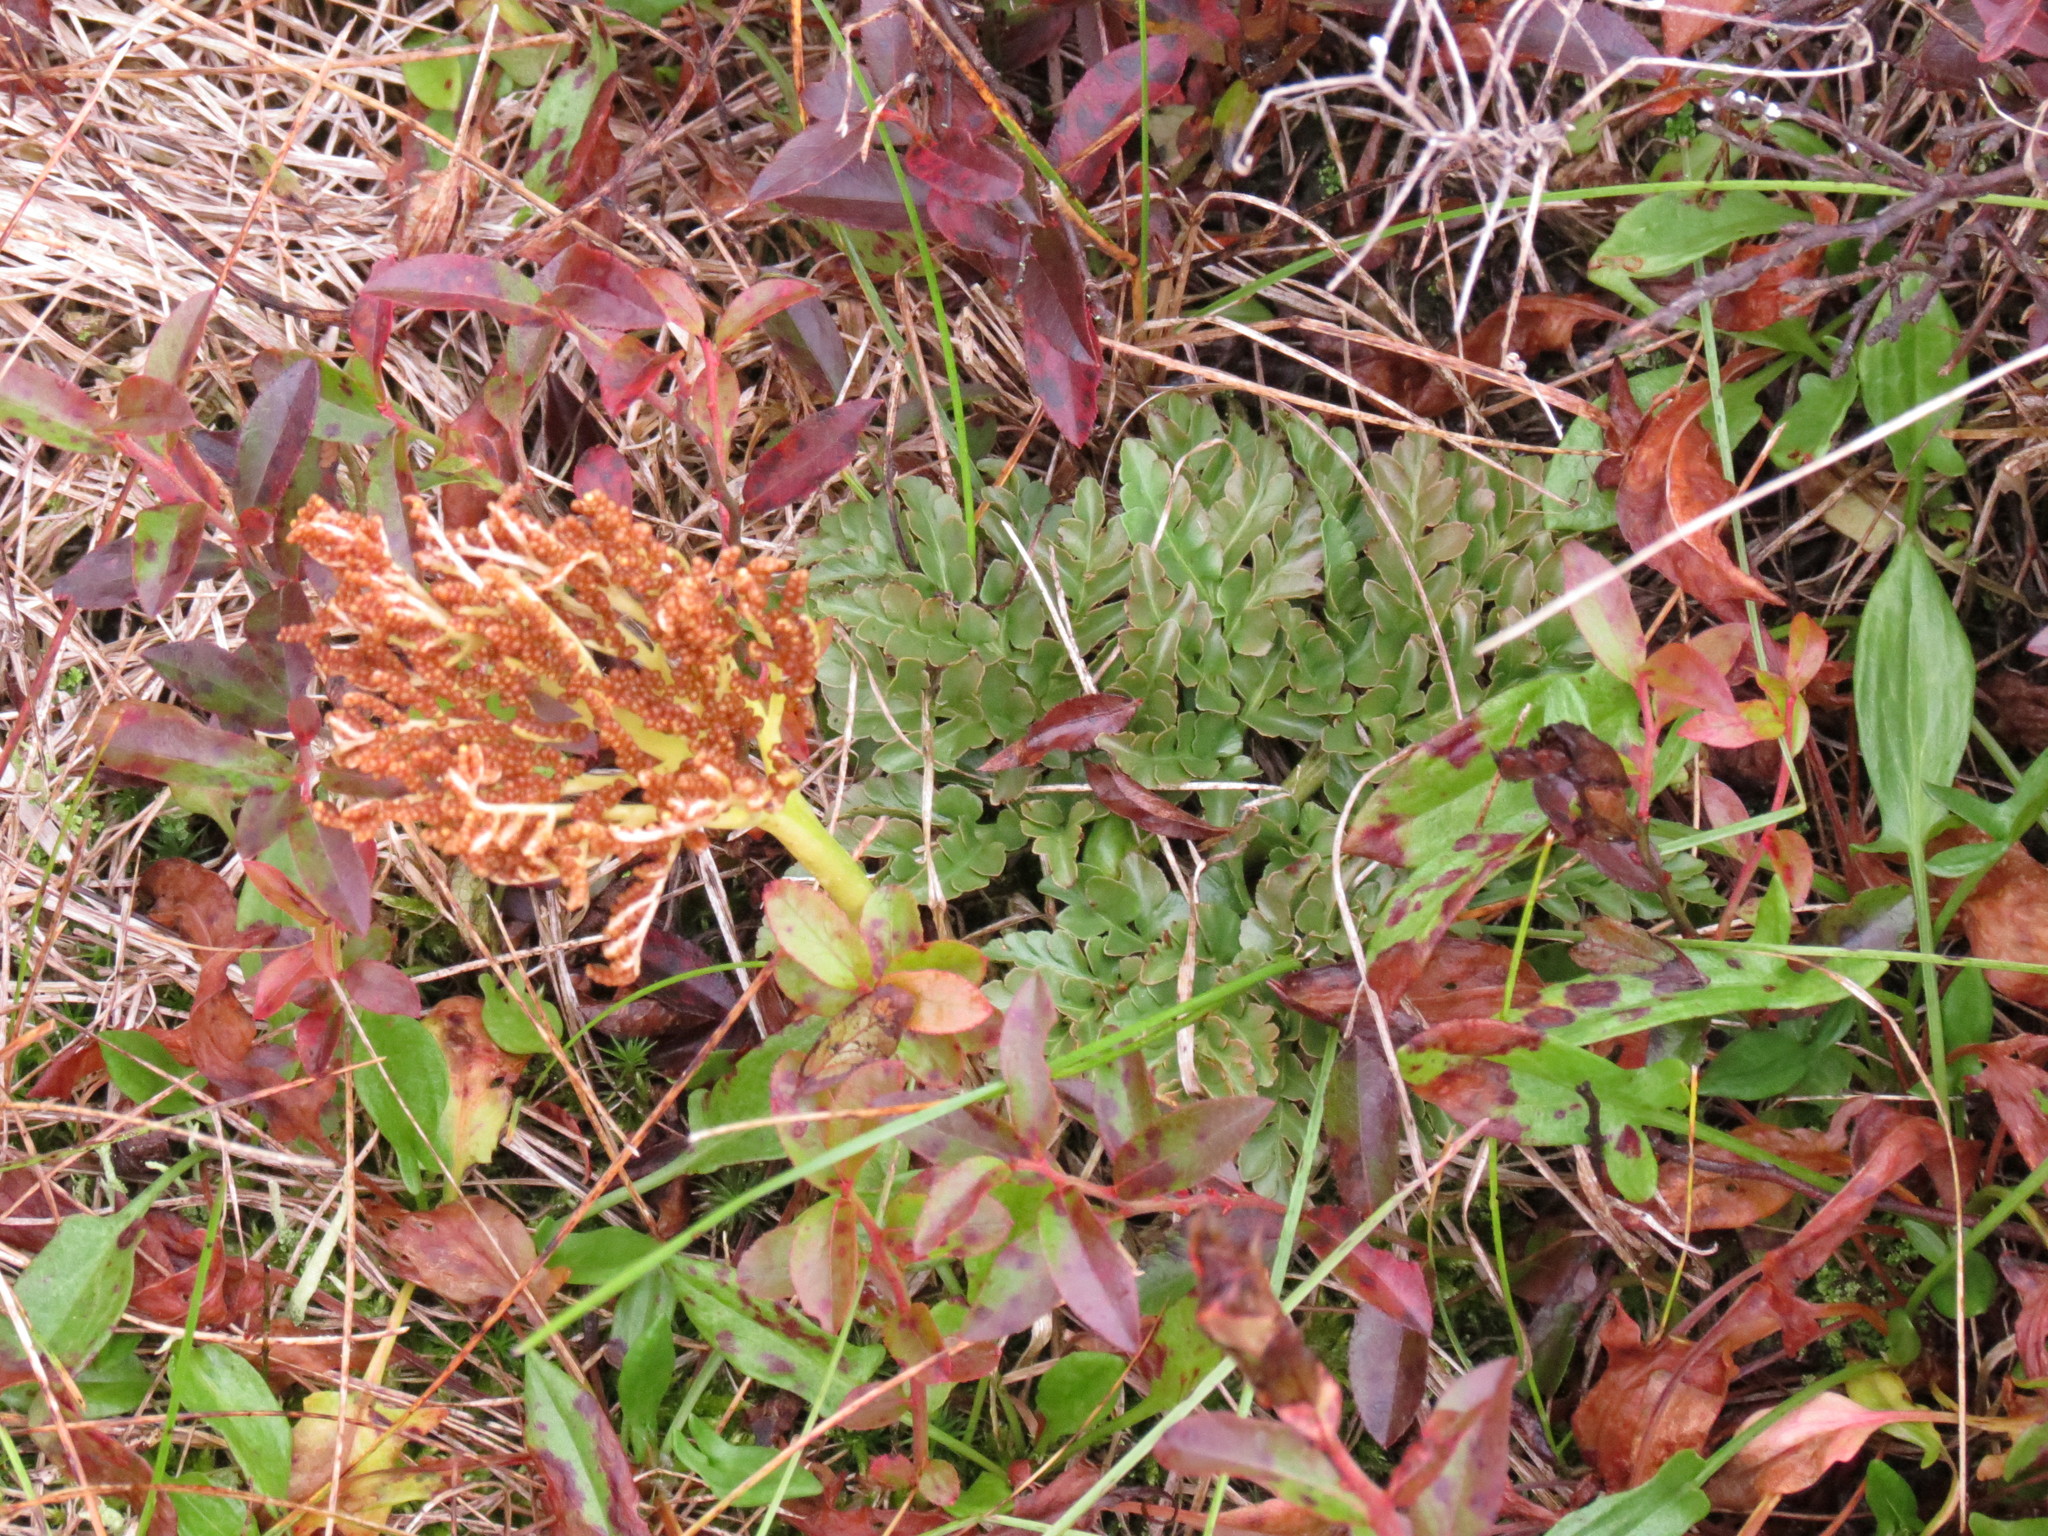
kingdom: Plantae
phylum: Tracheophyta
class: Polypodiopsida
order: Ophioglossales
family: Ophioglossaceae
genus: Sceptridium
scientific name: Sceptridium multifidum
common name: Leathery grape fern
